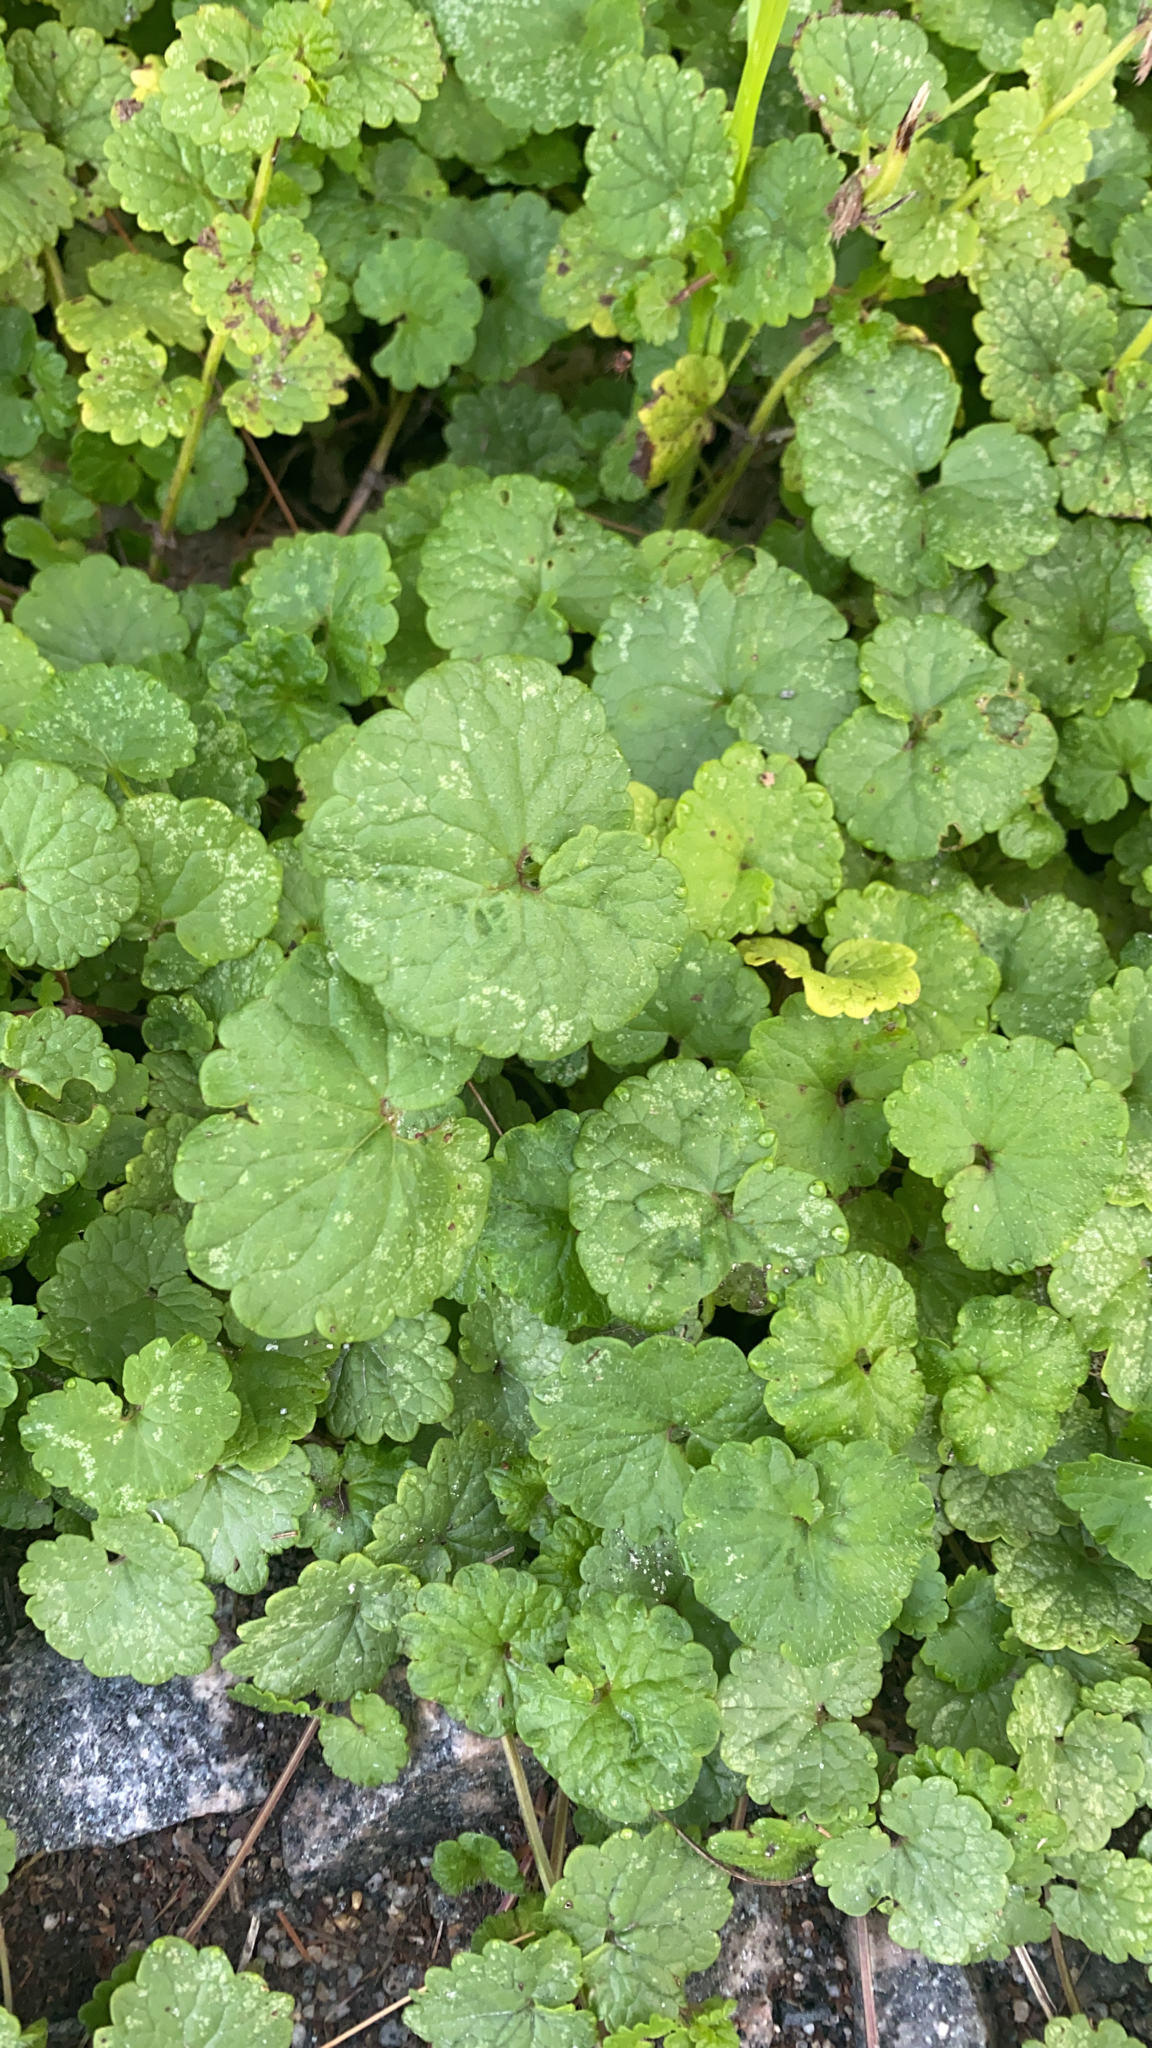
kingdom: Plantae
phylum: Tracheophyta
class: Magnoliopsida
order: Lamiales
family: Lamiaceae
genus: Glechoma
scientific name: Glechoma hederacea
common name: Ground ivy
